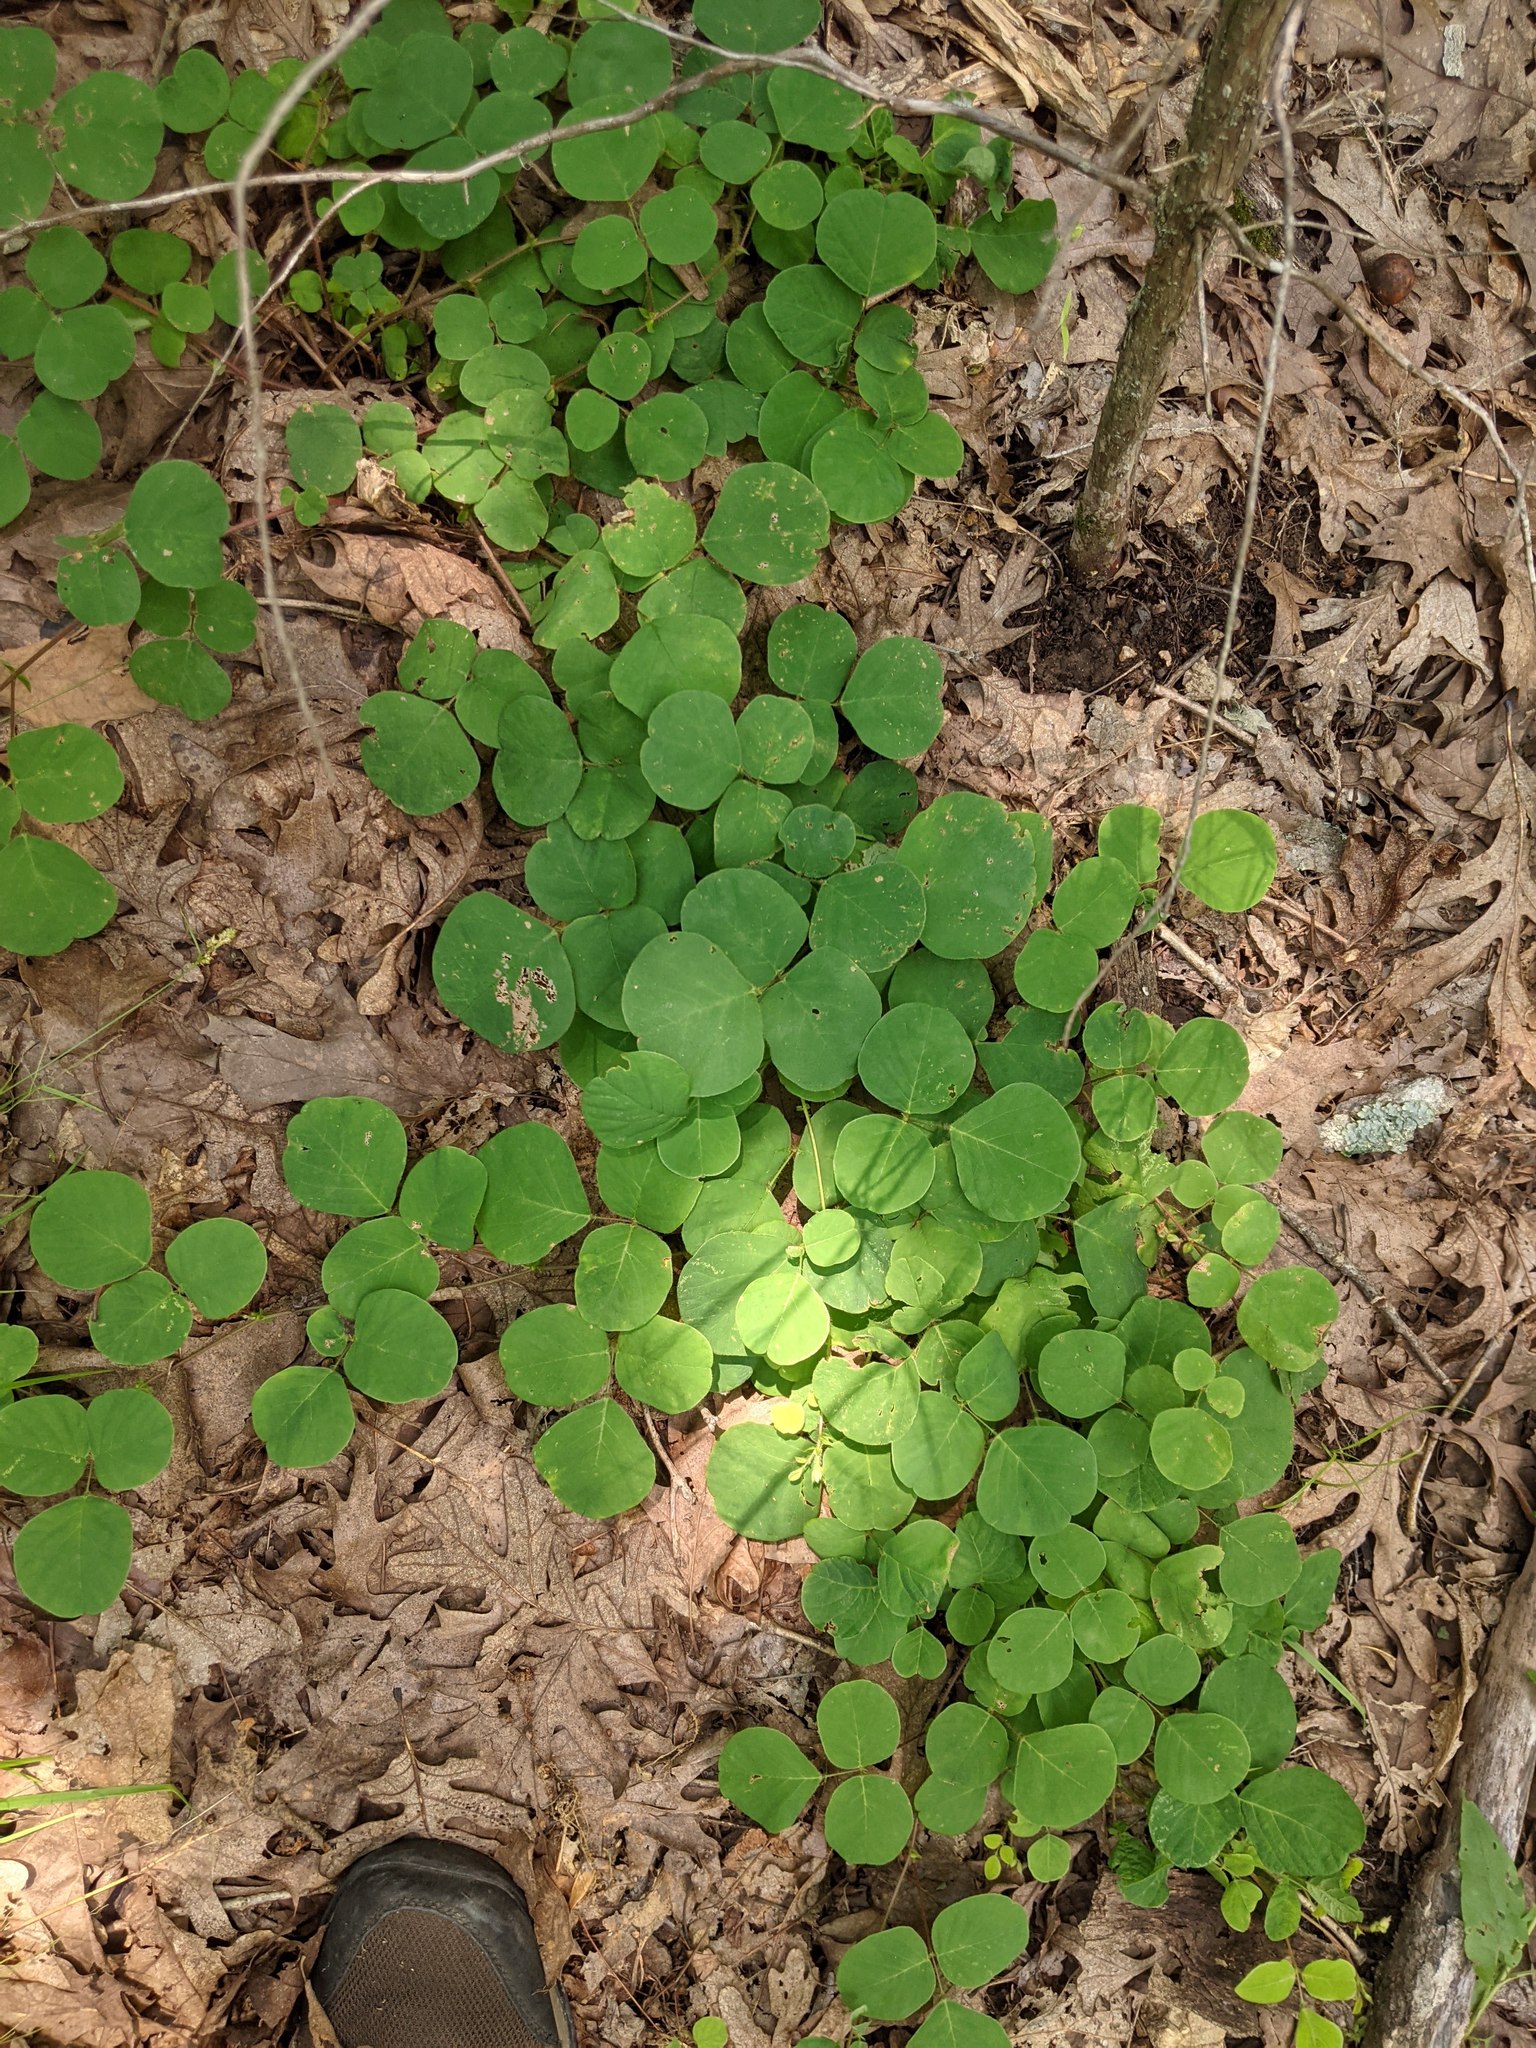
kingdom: Plantae
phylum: Tracheophyta
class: Magnoliopsida
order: Fabales
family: Fabaceae
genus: Desmodium
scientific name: Desmodium rotundifolium
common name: Dollarleaf
